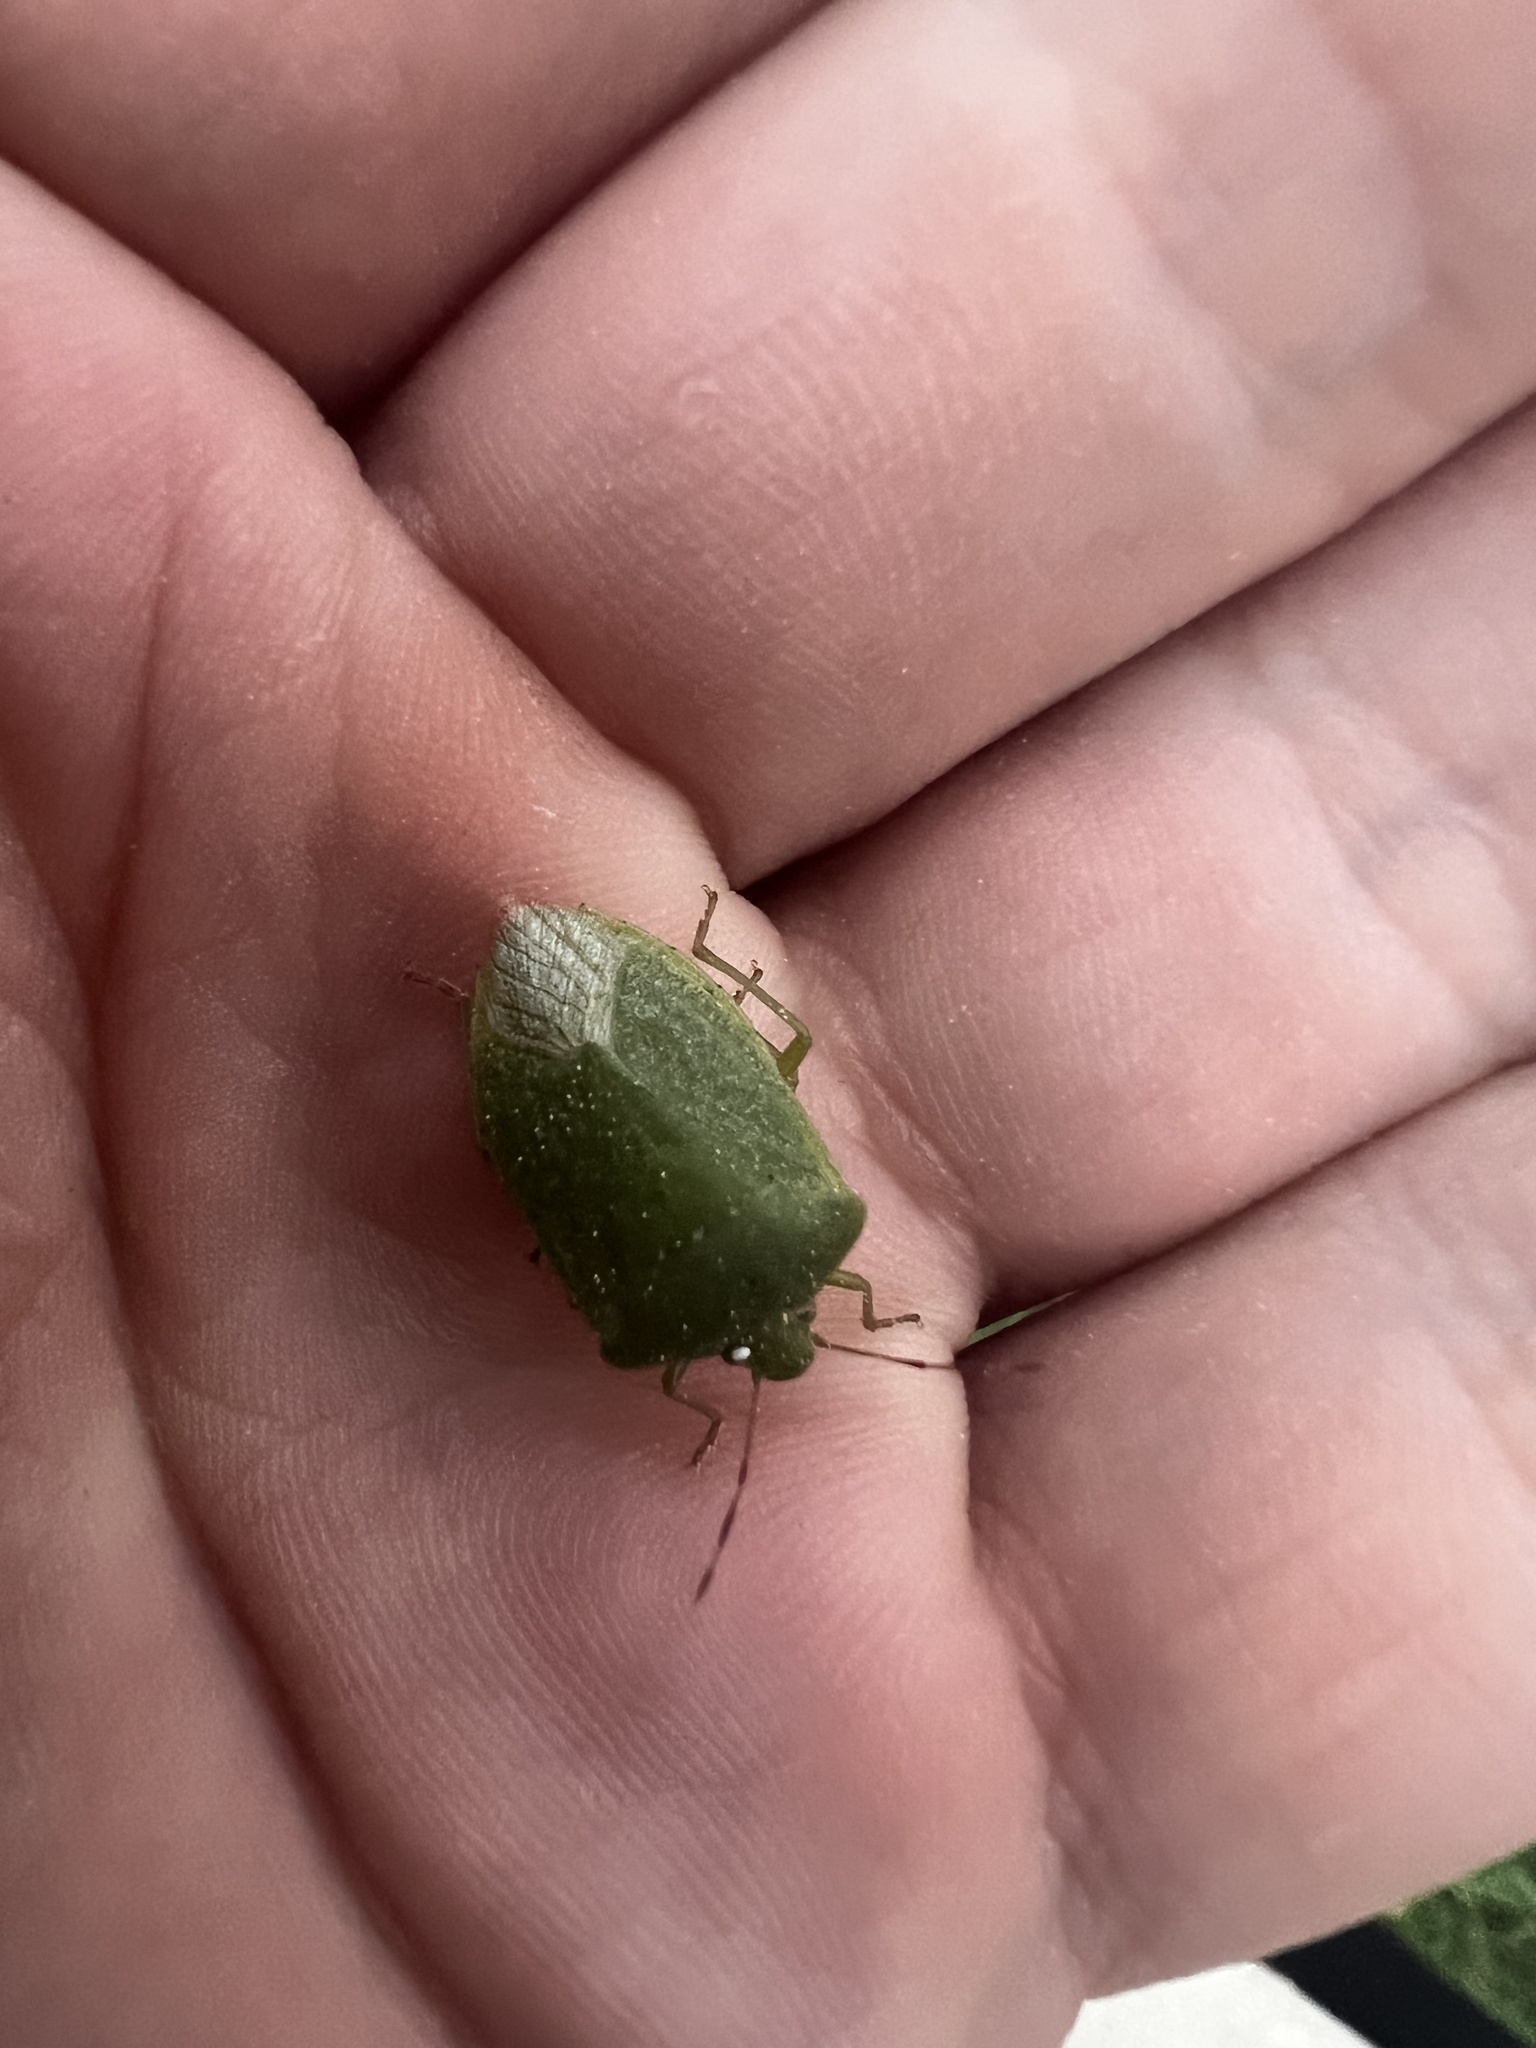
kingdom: Animalia
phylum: Arthropoda
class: Insecta
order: Hemiptera
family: Pentatomidae
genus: Nezara
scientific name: Nezara viridula
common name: Southern green stink bug
